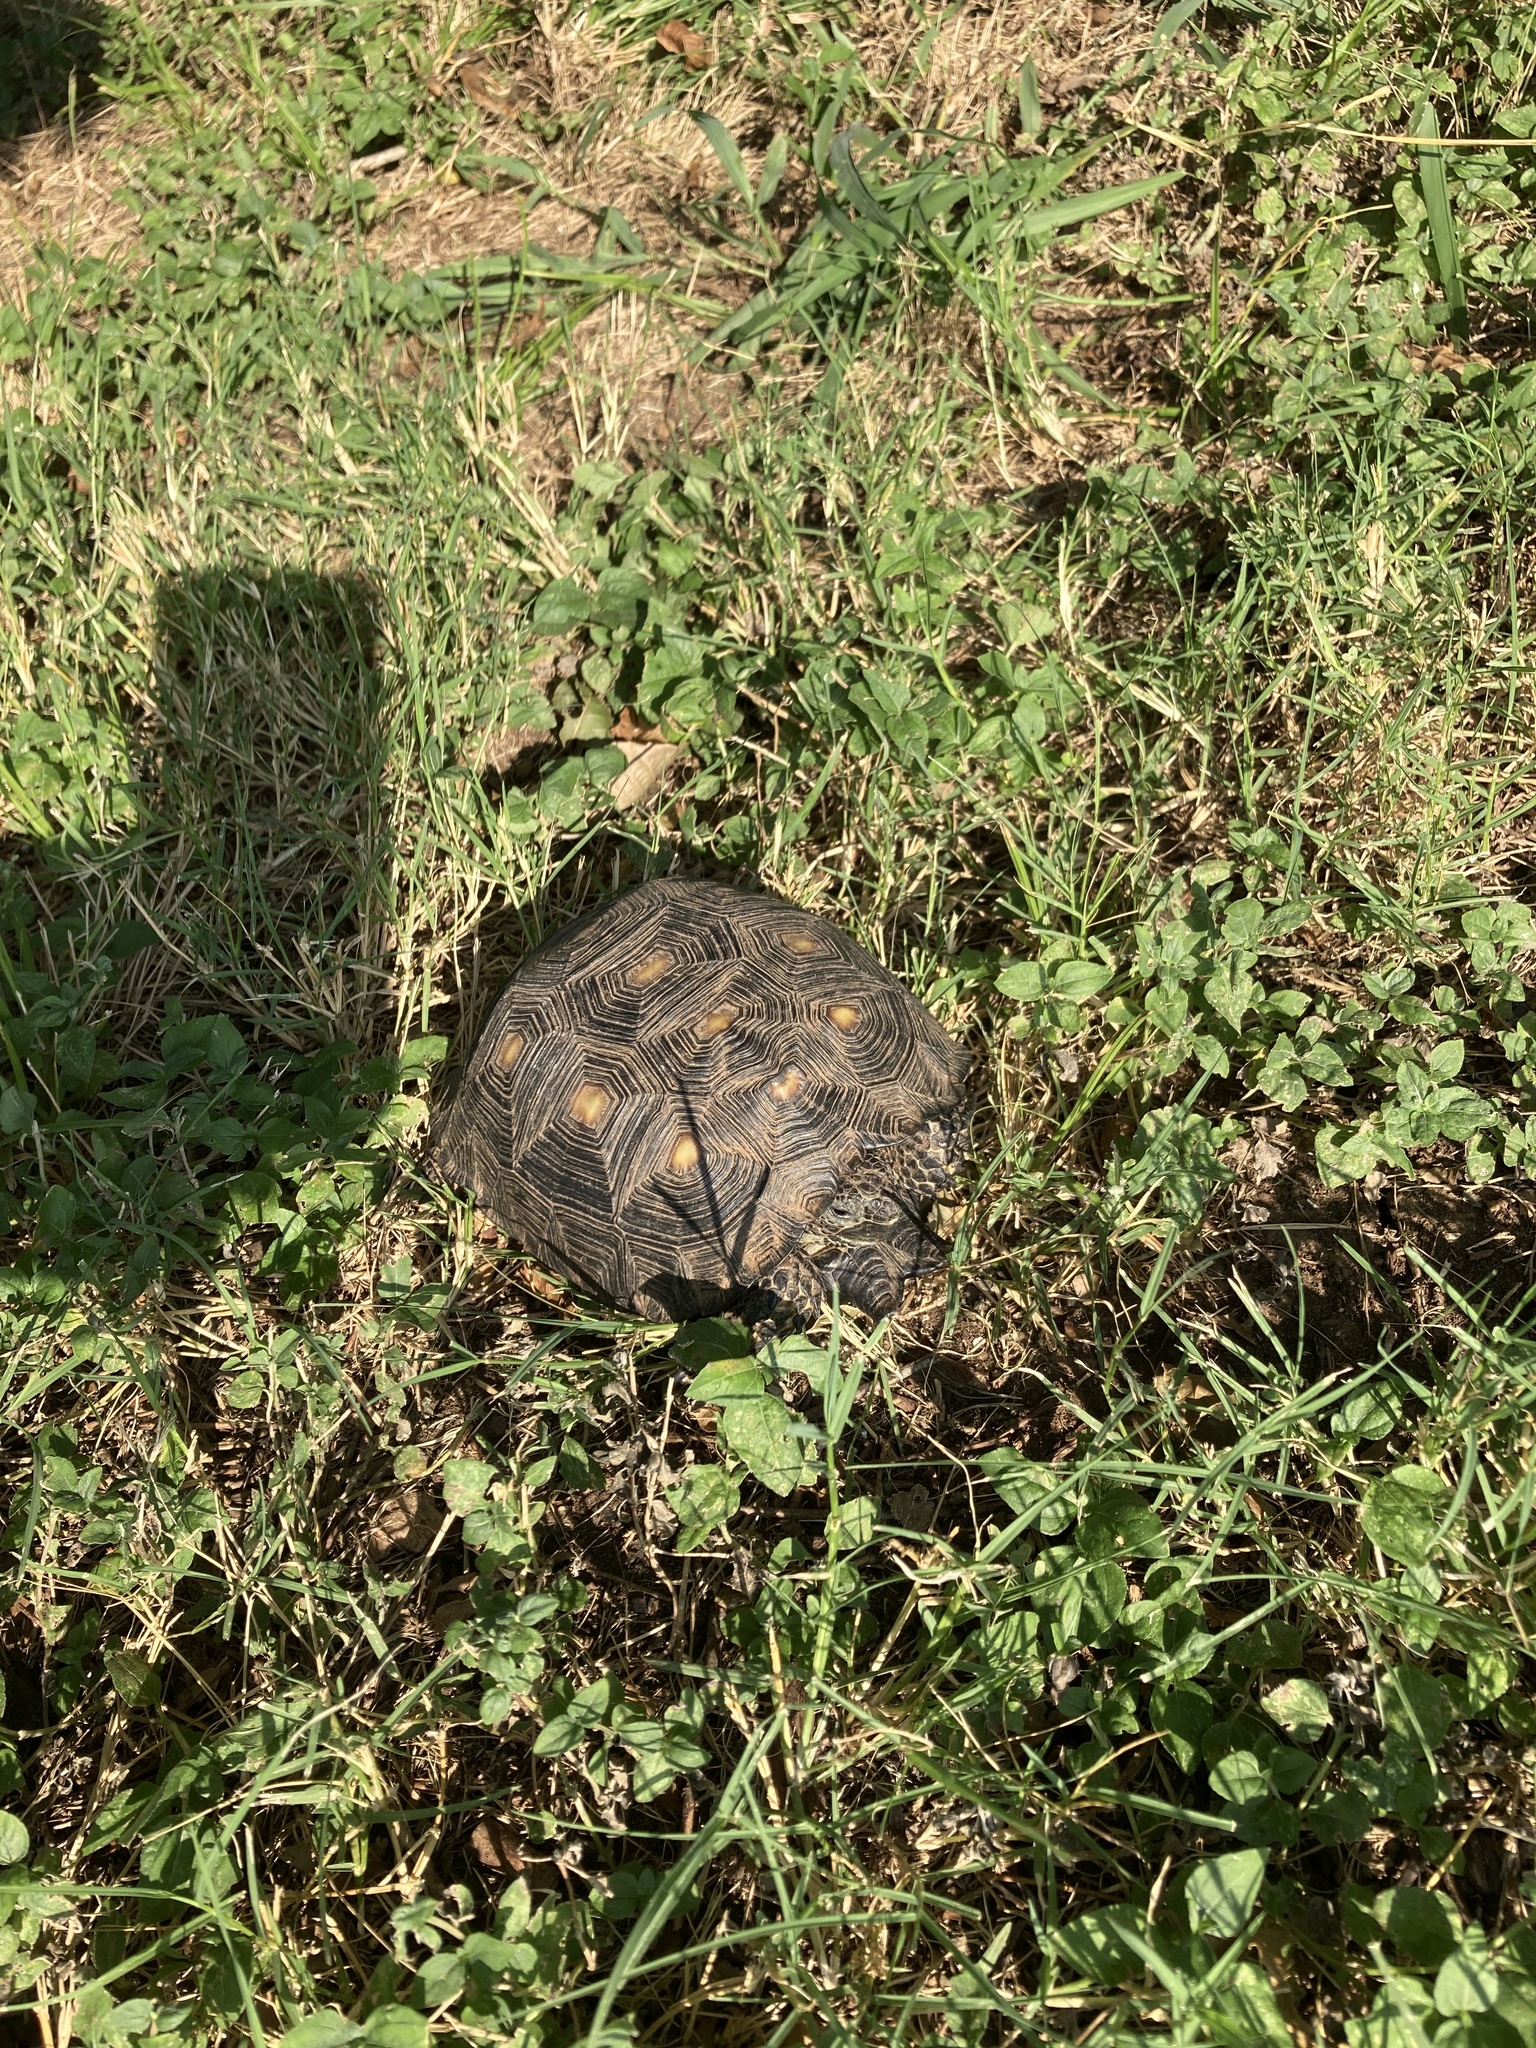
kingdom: Animalia
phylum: Chordata
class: Testudines
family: Testudinidae
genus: Gopherus
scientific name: Gopherus berlandieri
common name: Texas (gopher )tortoise
